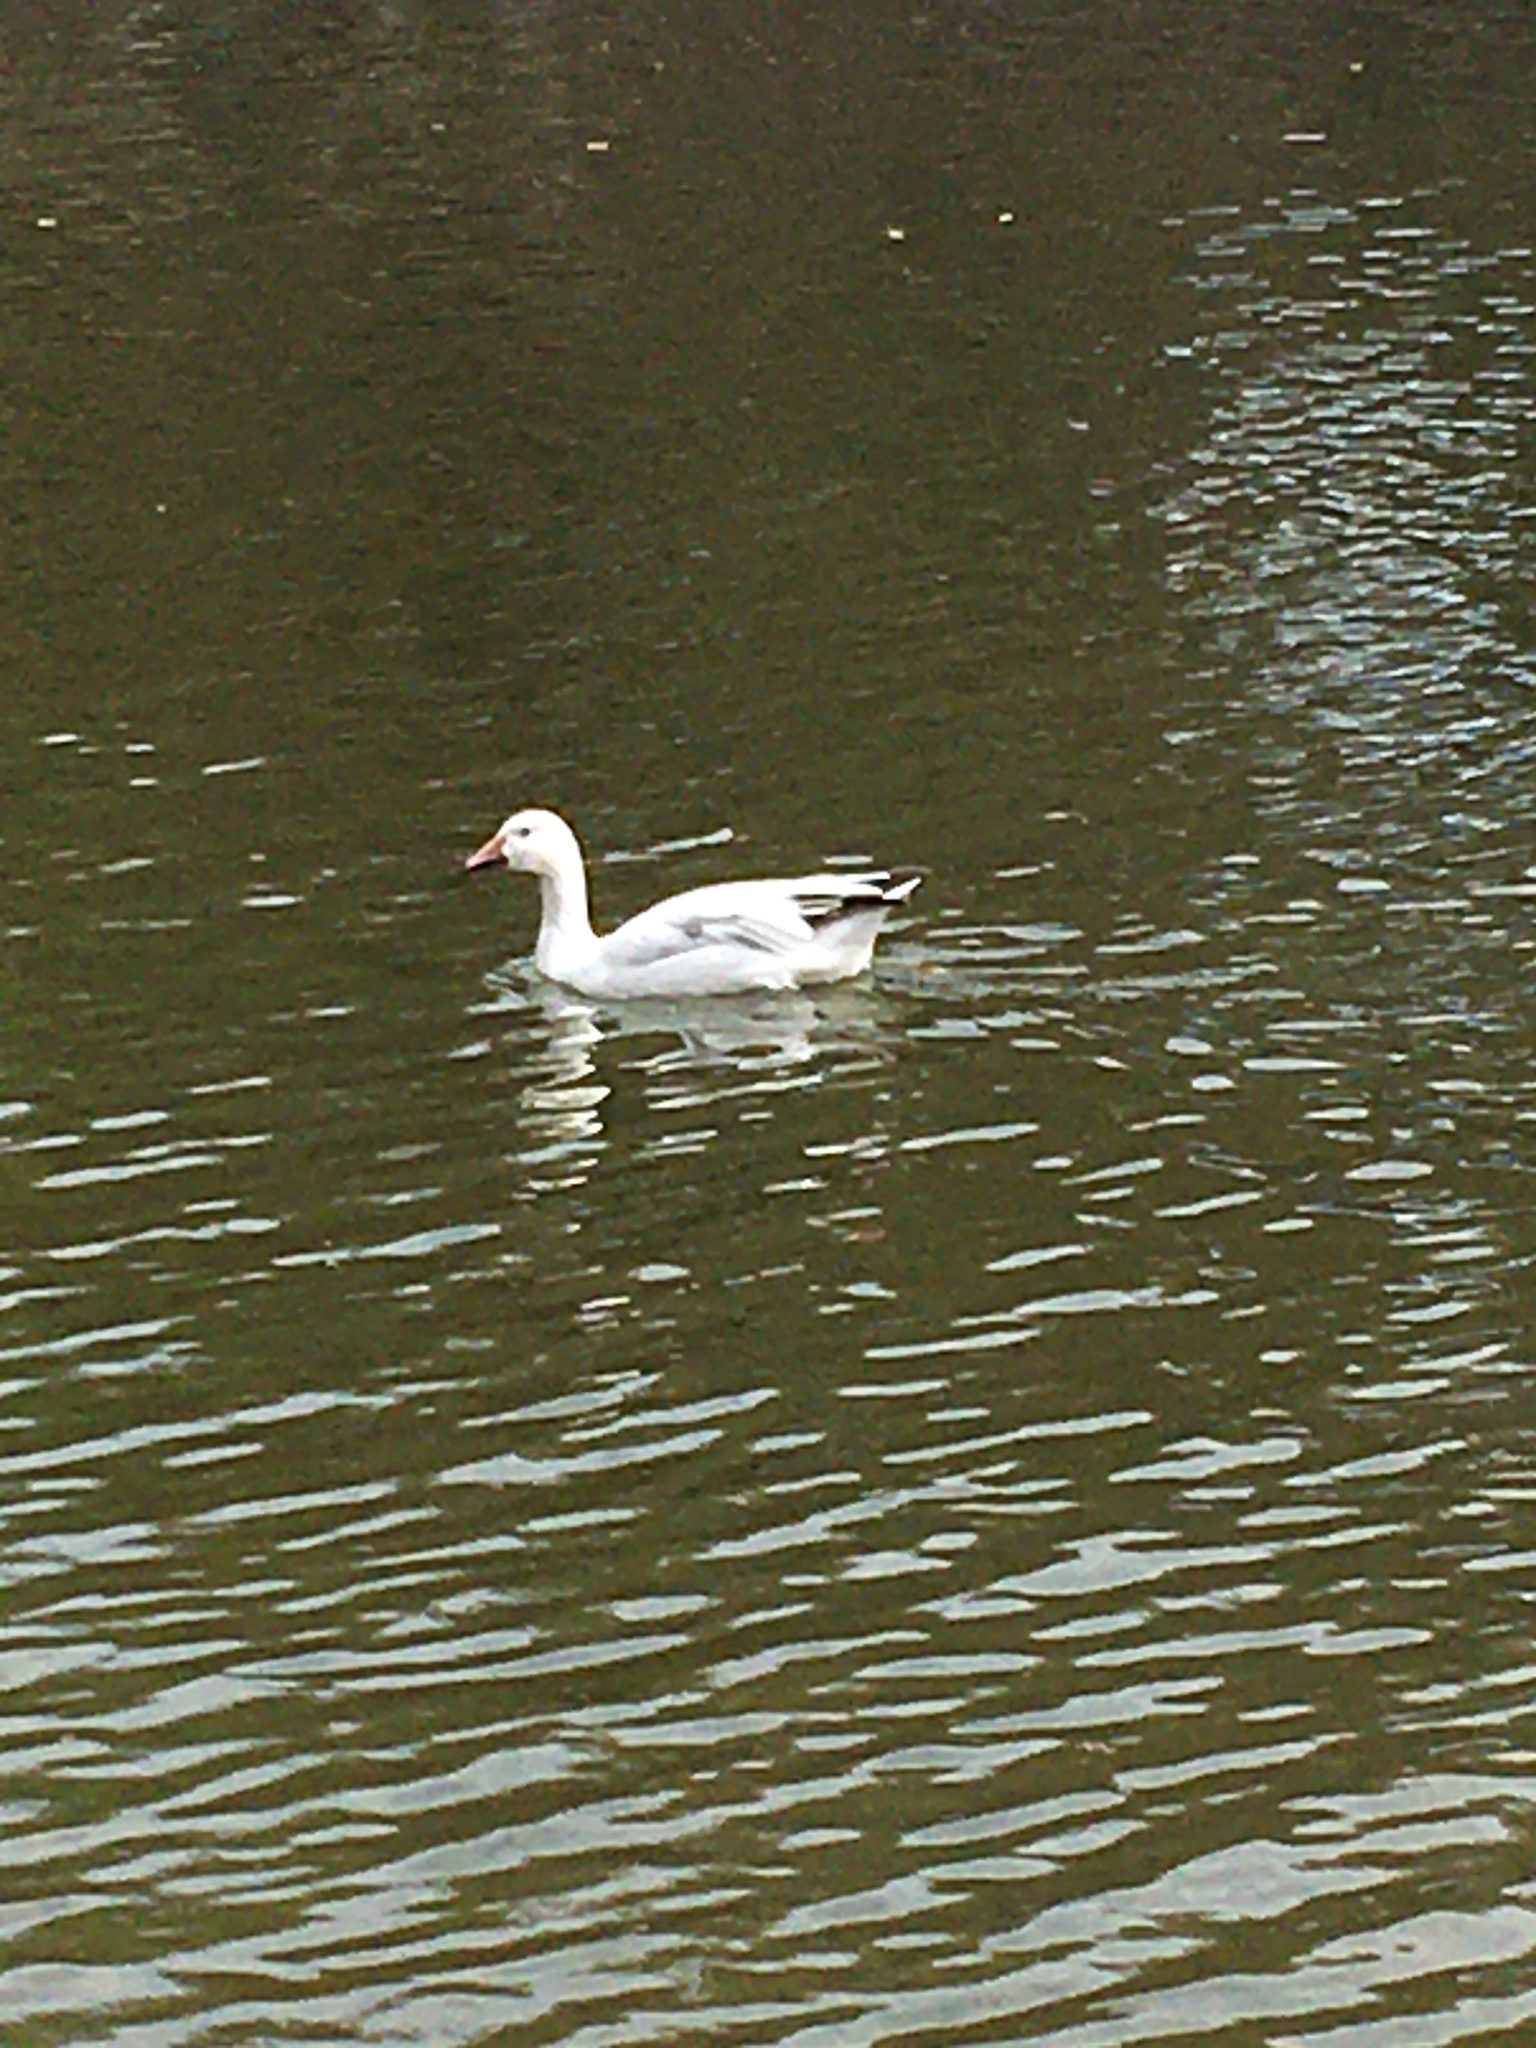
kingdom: Animalia
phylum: Chordata
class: Aves
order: Anseriformes
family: Anatidae
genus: Anser
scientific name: Anser caerulescens
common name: Snow goose
